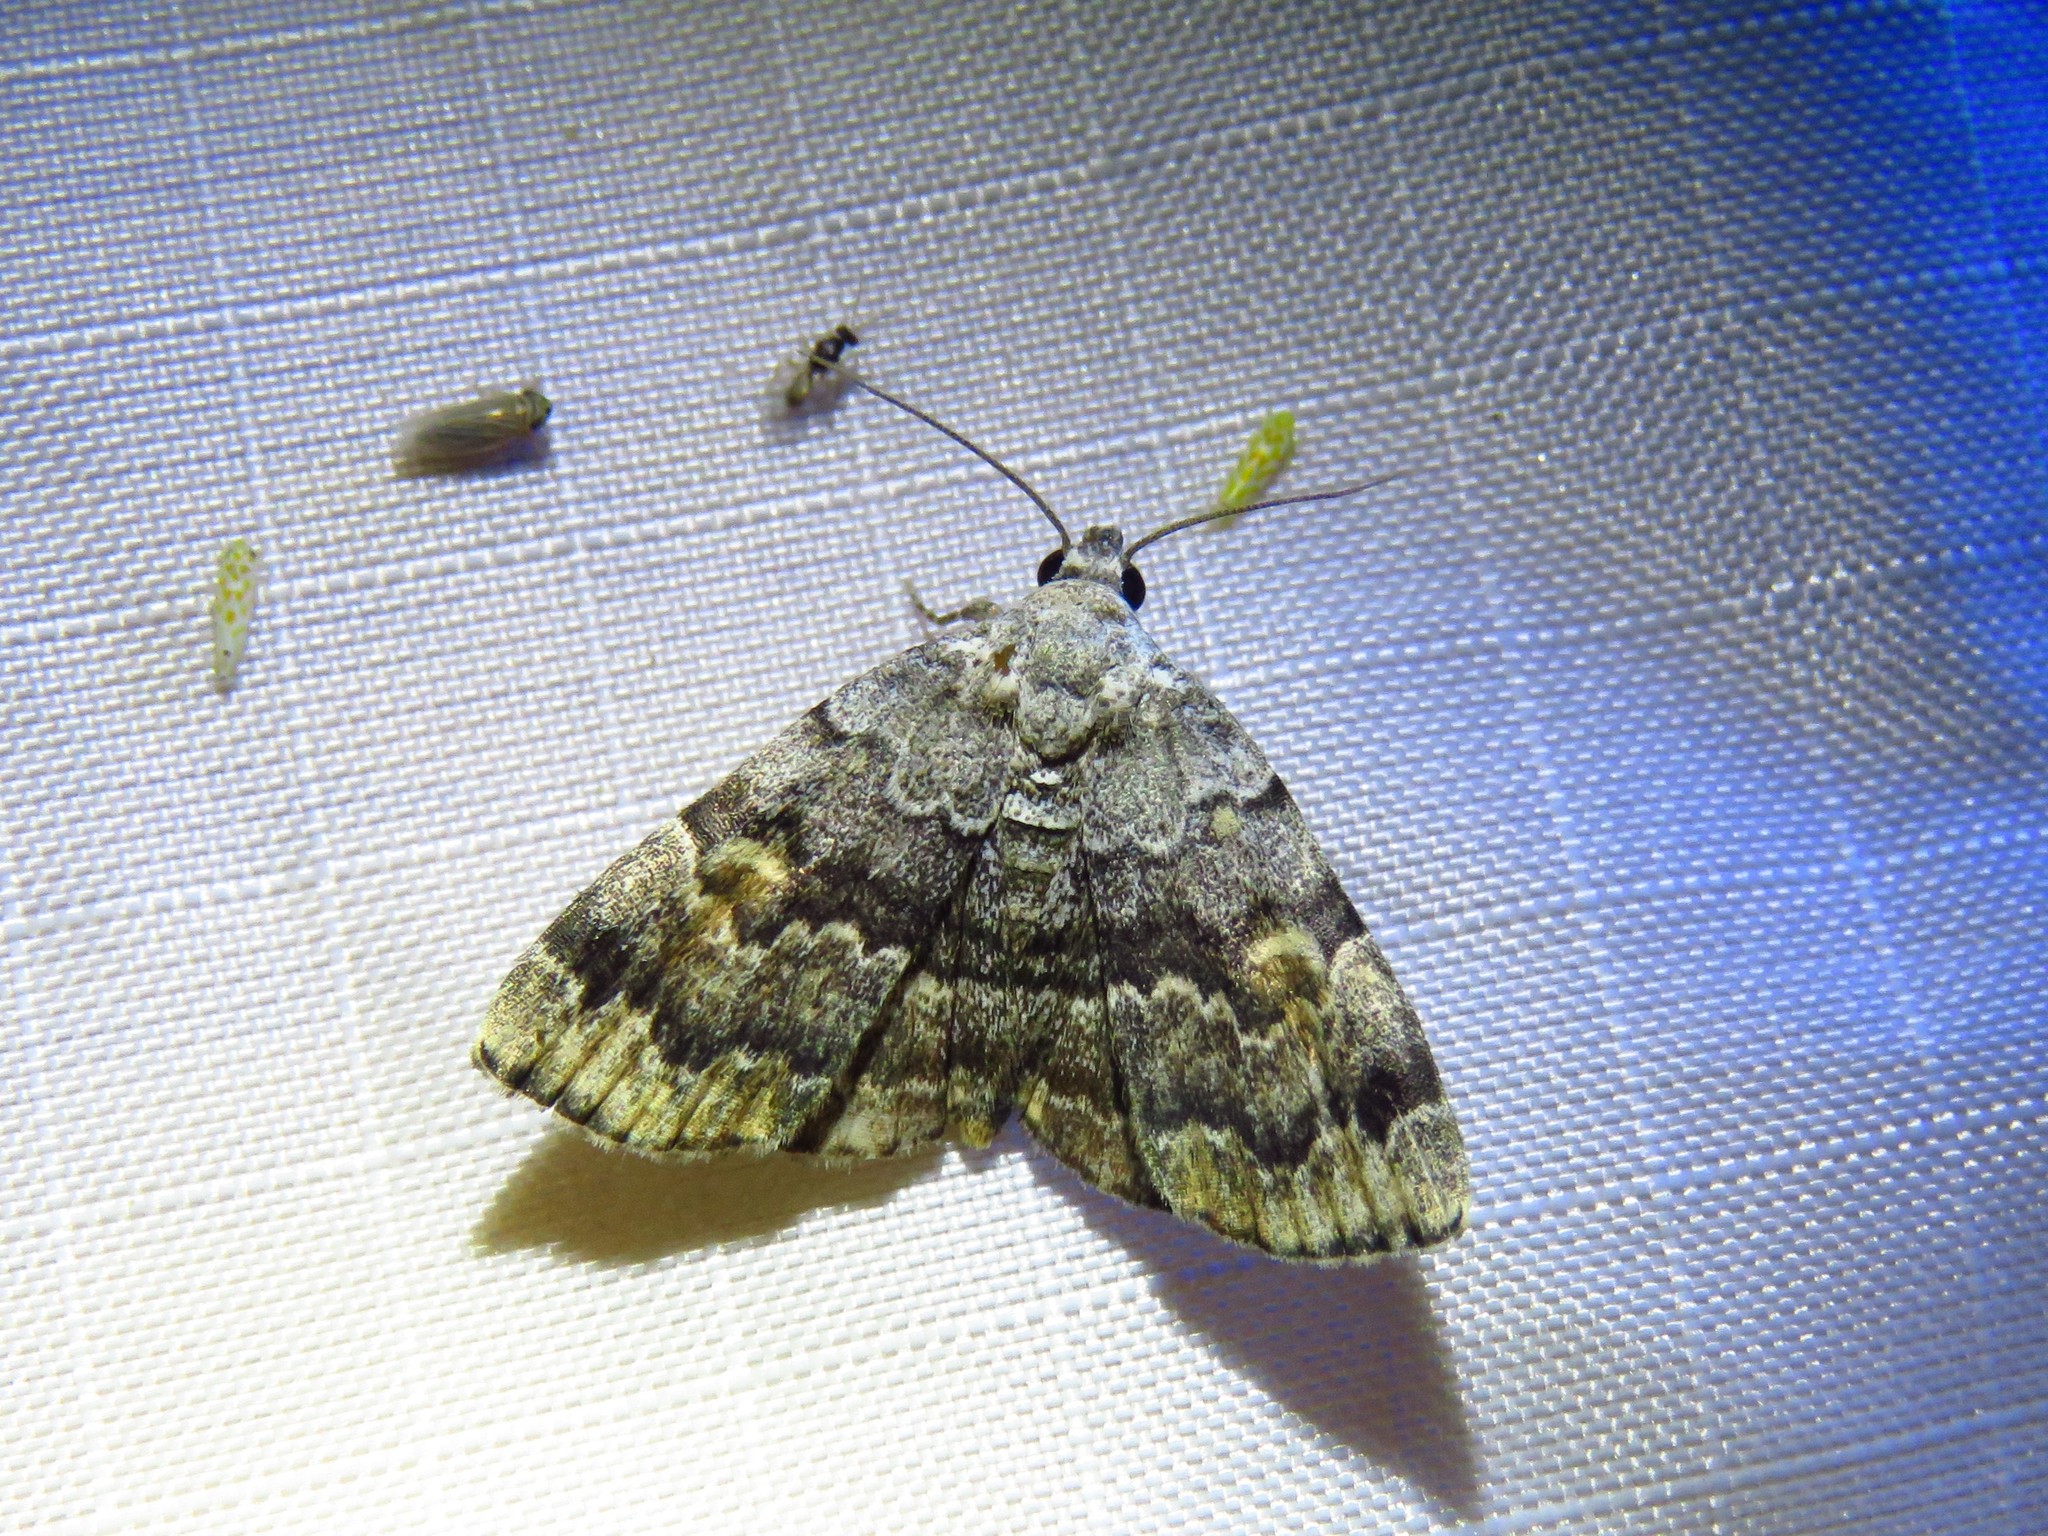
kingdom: Animalia
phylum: Arthropoda
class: Insecta
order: Lepidoptera
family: Erebidae
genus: Idia
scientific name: Idia americalis
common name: American idia moth
